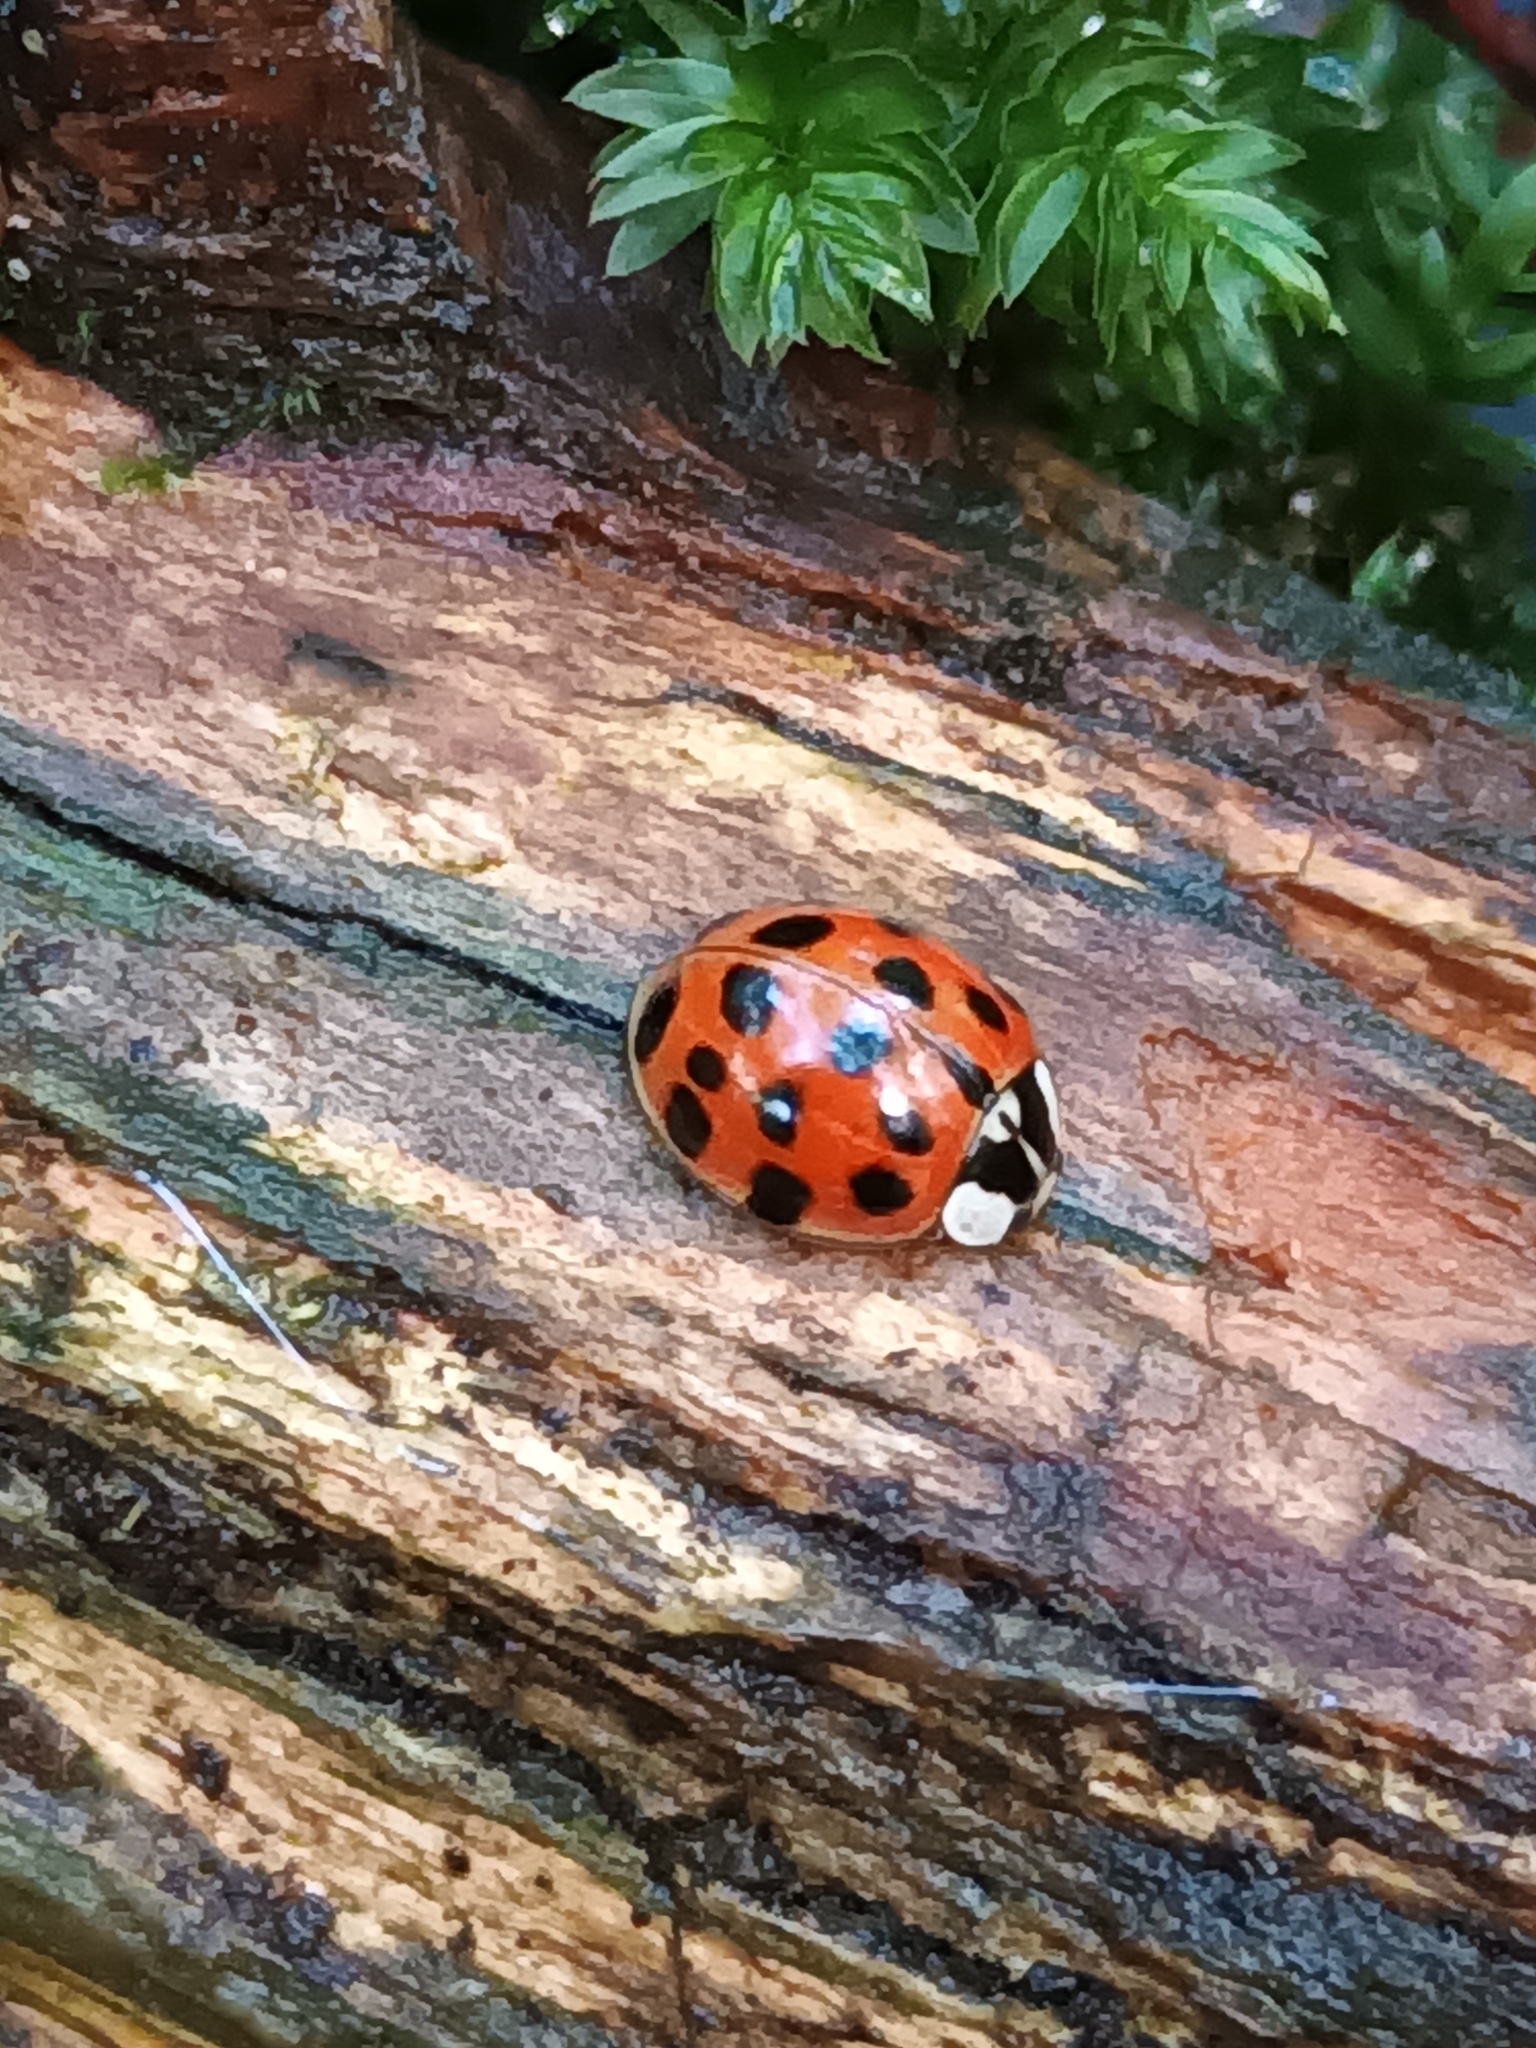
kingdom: Animalia
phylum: Arthropoda
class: Insecta
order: Coleoptera
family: Coccinellidae
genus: Harmonia
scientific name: Harmonia axyridis
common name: Harlequin ladybird
